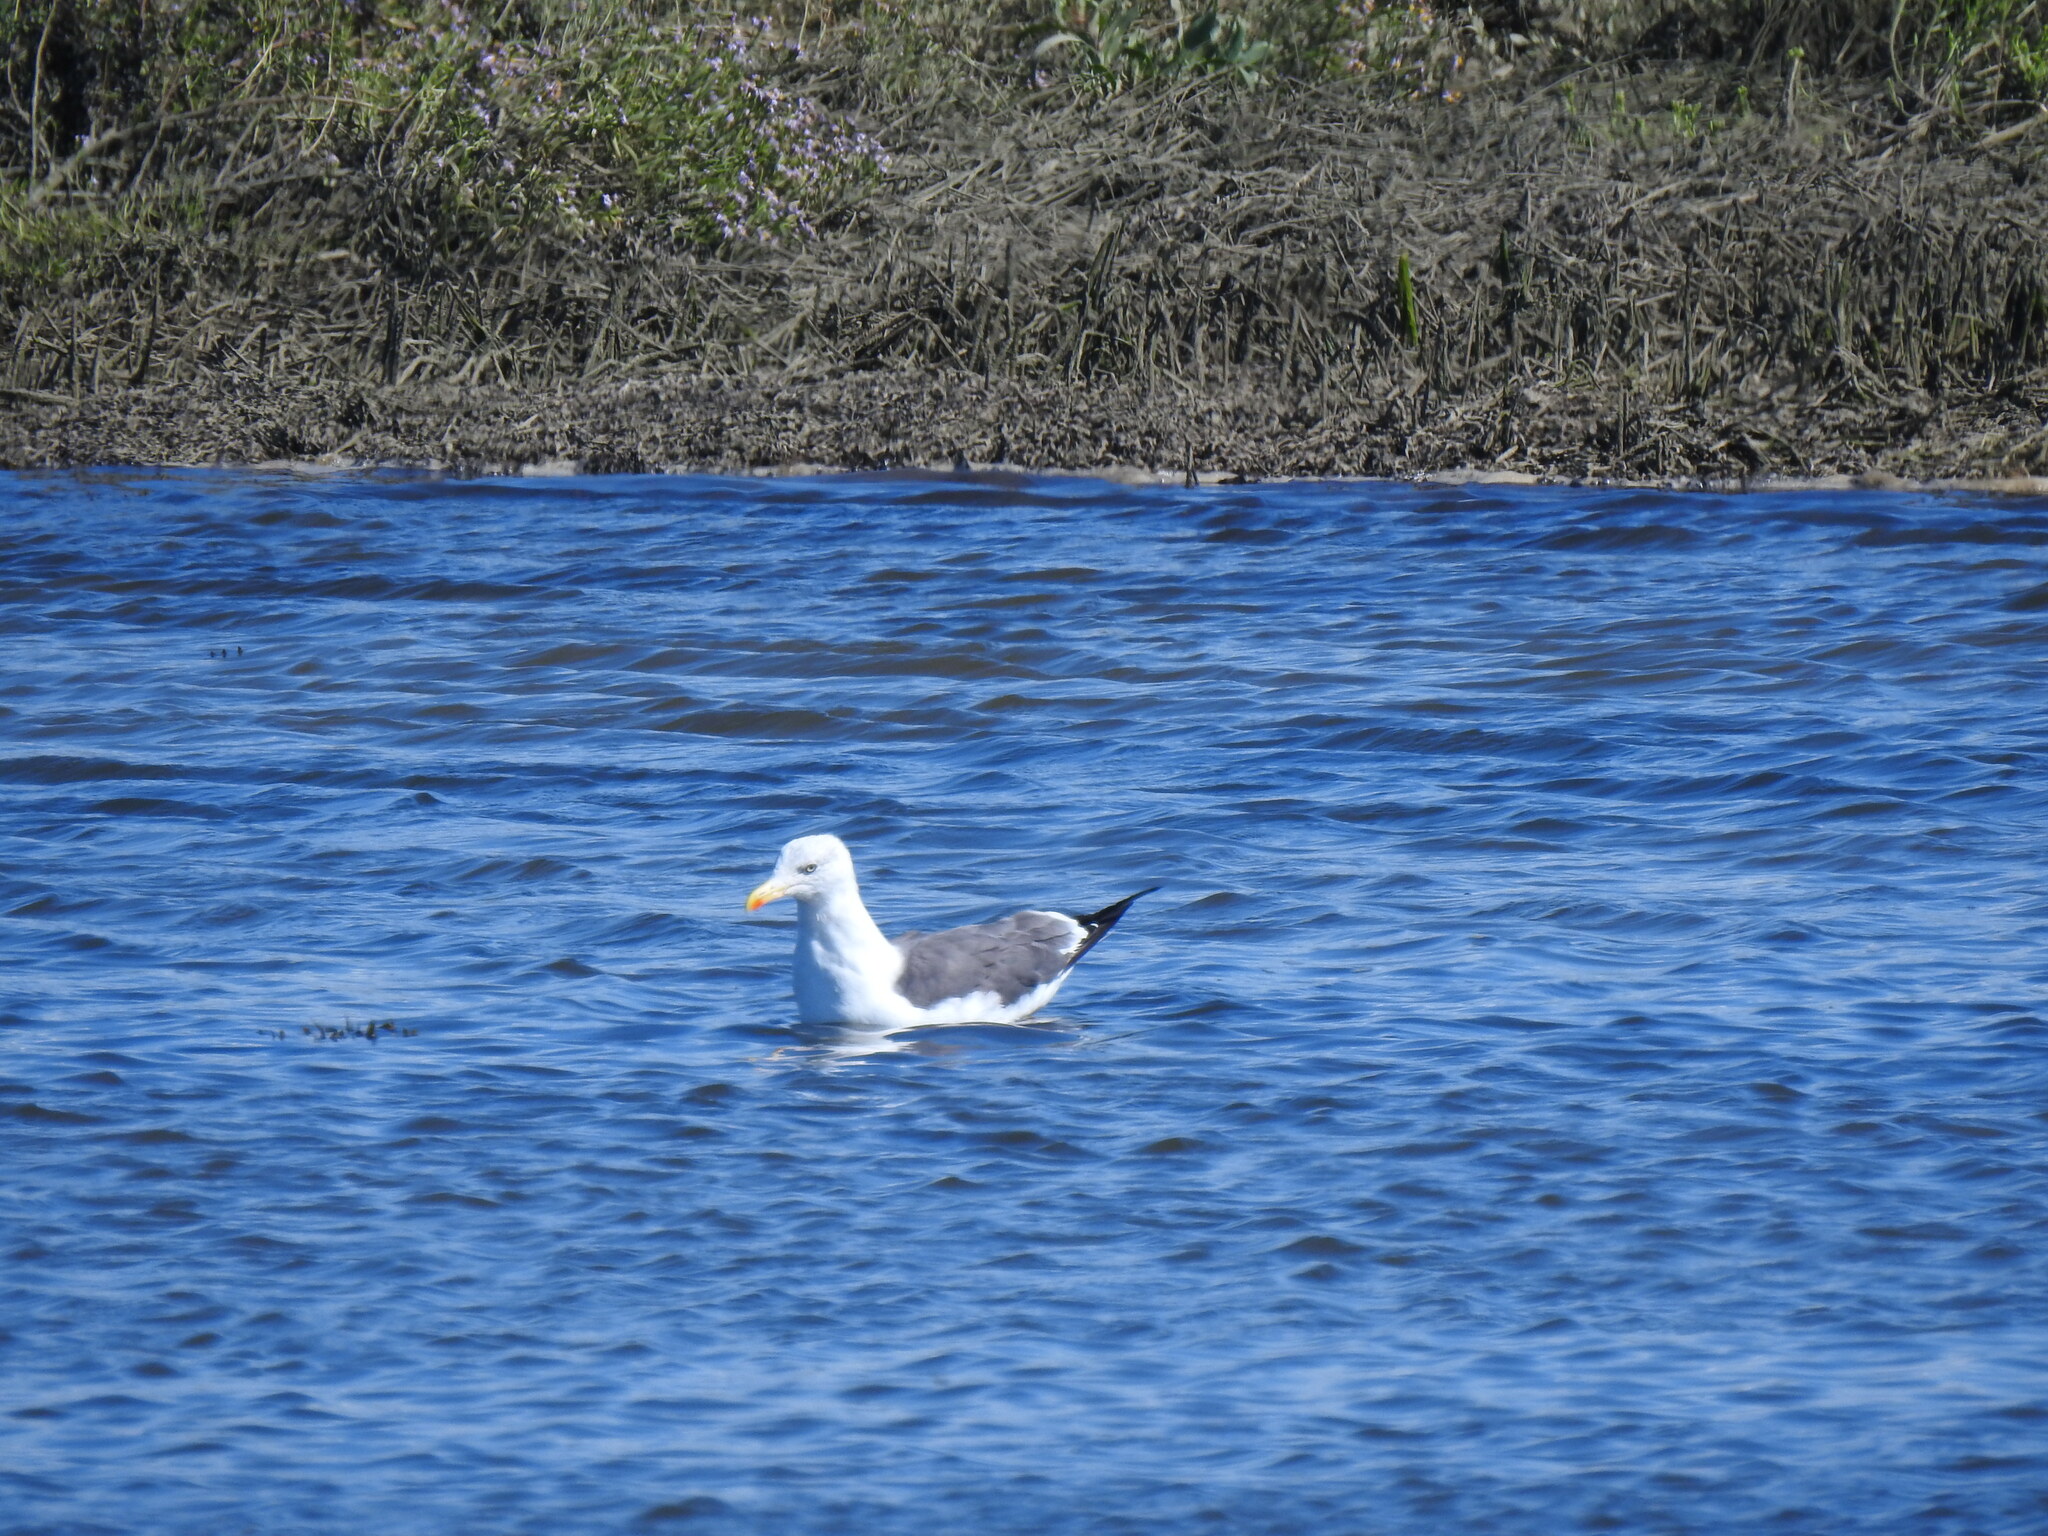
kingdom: Animalia
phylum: Chordata
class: Aves
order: Charadriiformes
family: Laridae
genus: Larus
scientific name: Larus fuscus
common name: Lesser black-backed gull
